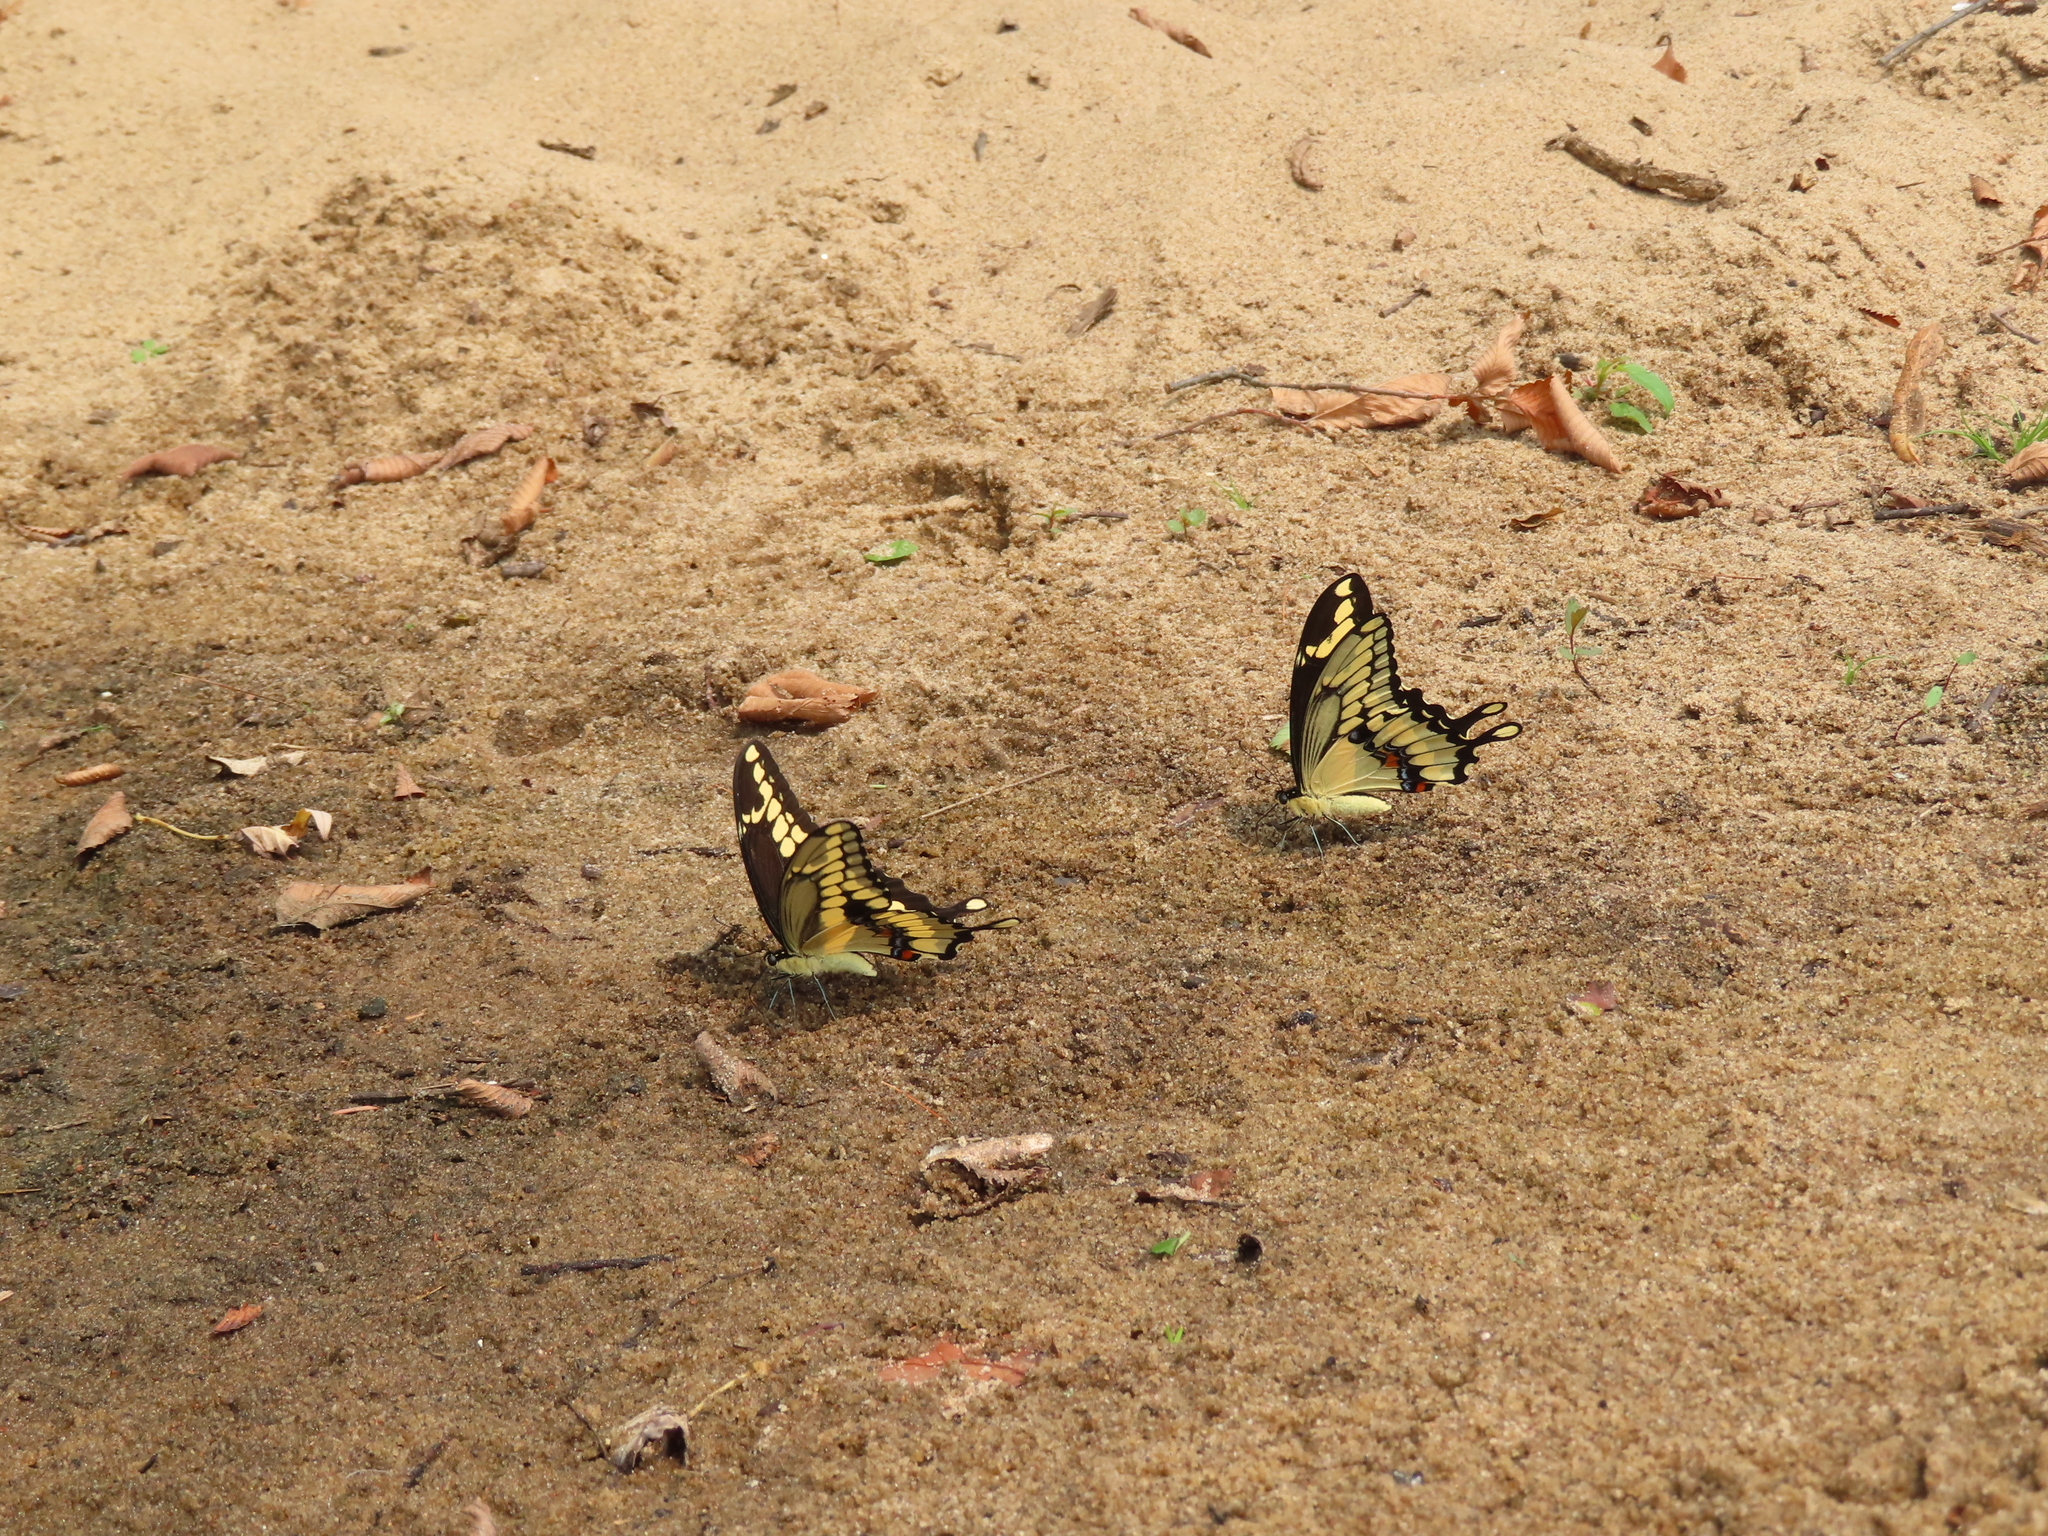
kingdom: Animalia
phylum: Arthropoda
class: Insecta
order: Lepidoptera
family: Papilionidae
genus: Papilio
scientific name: Papilio cresphontes
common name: Giant swallowtail
